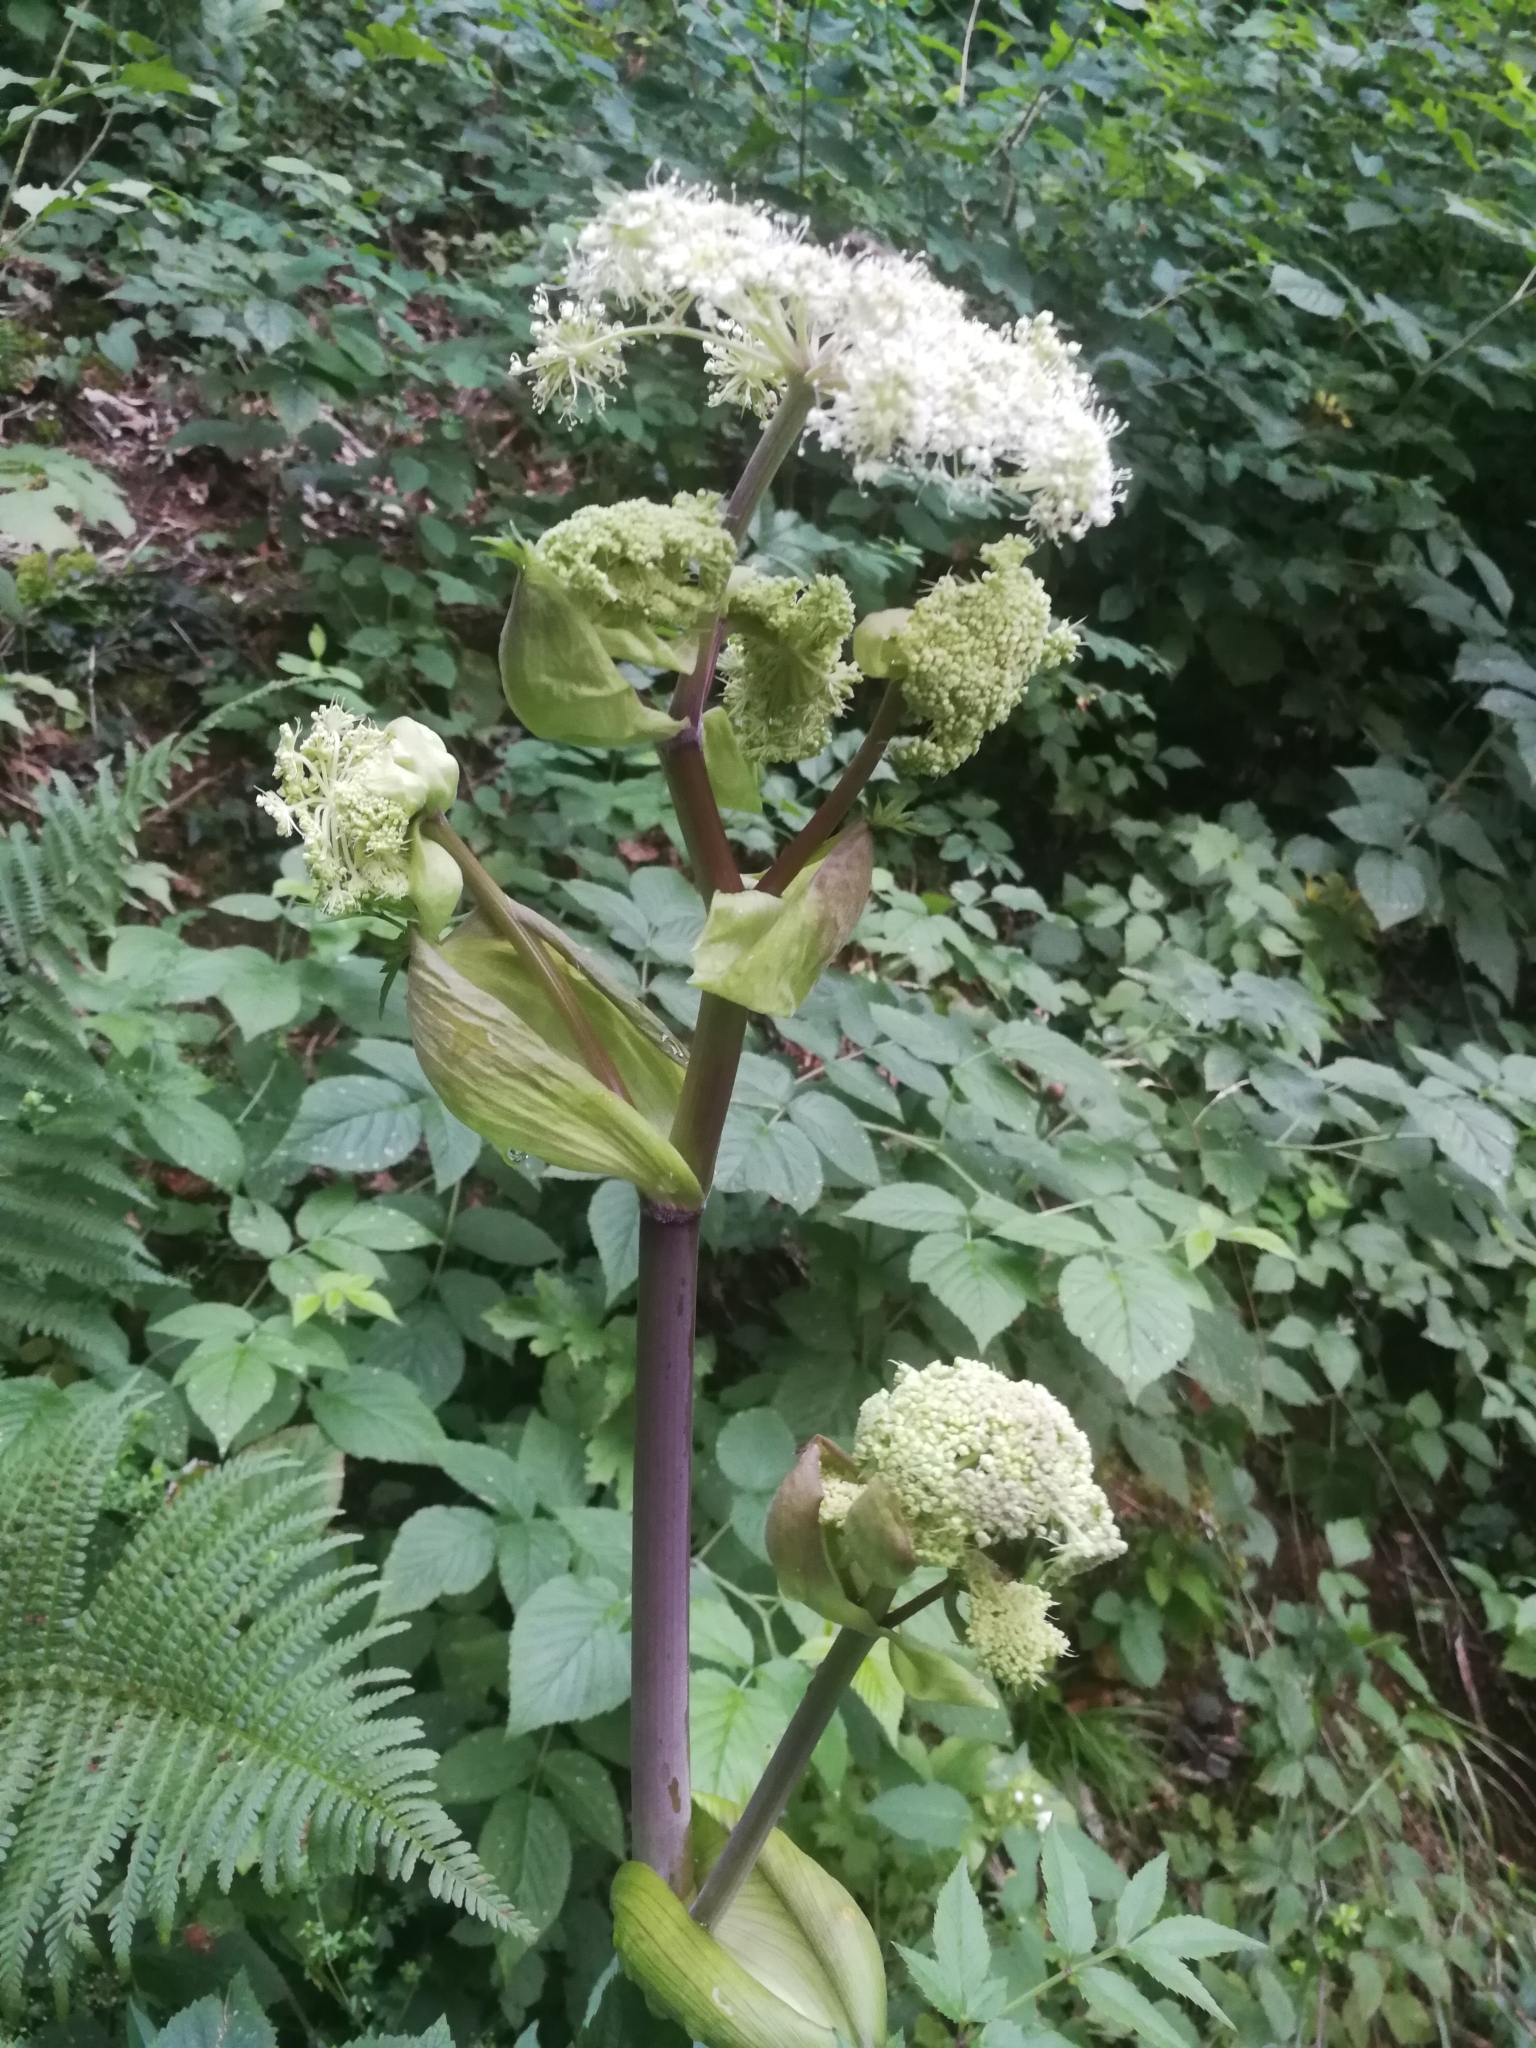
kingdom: Plantae
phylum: Tracheophyta
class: Magnoliopsida
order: Apiales
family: Apiaceae
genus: Angelica
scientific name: Angelica sylvestris
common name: Wild angelica
